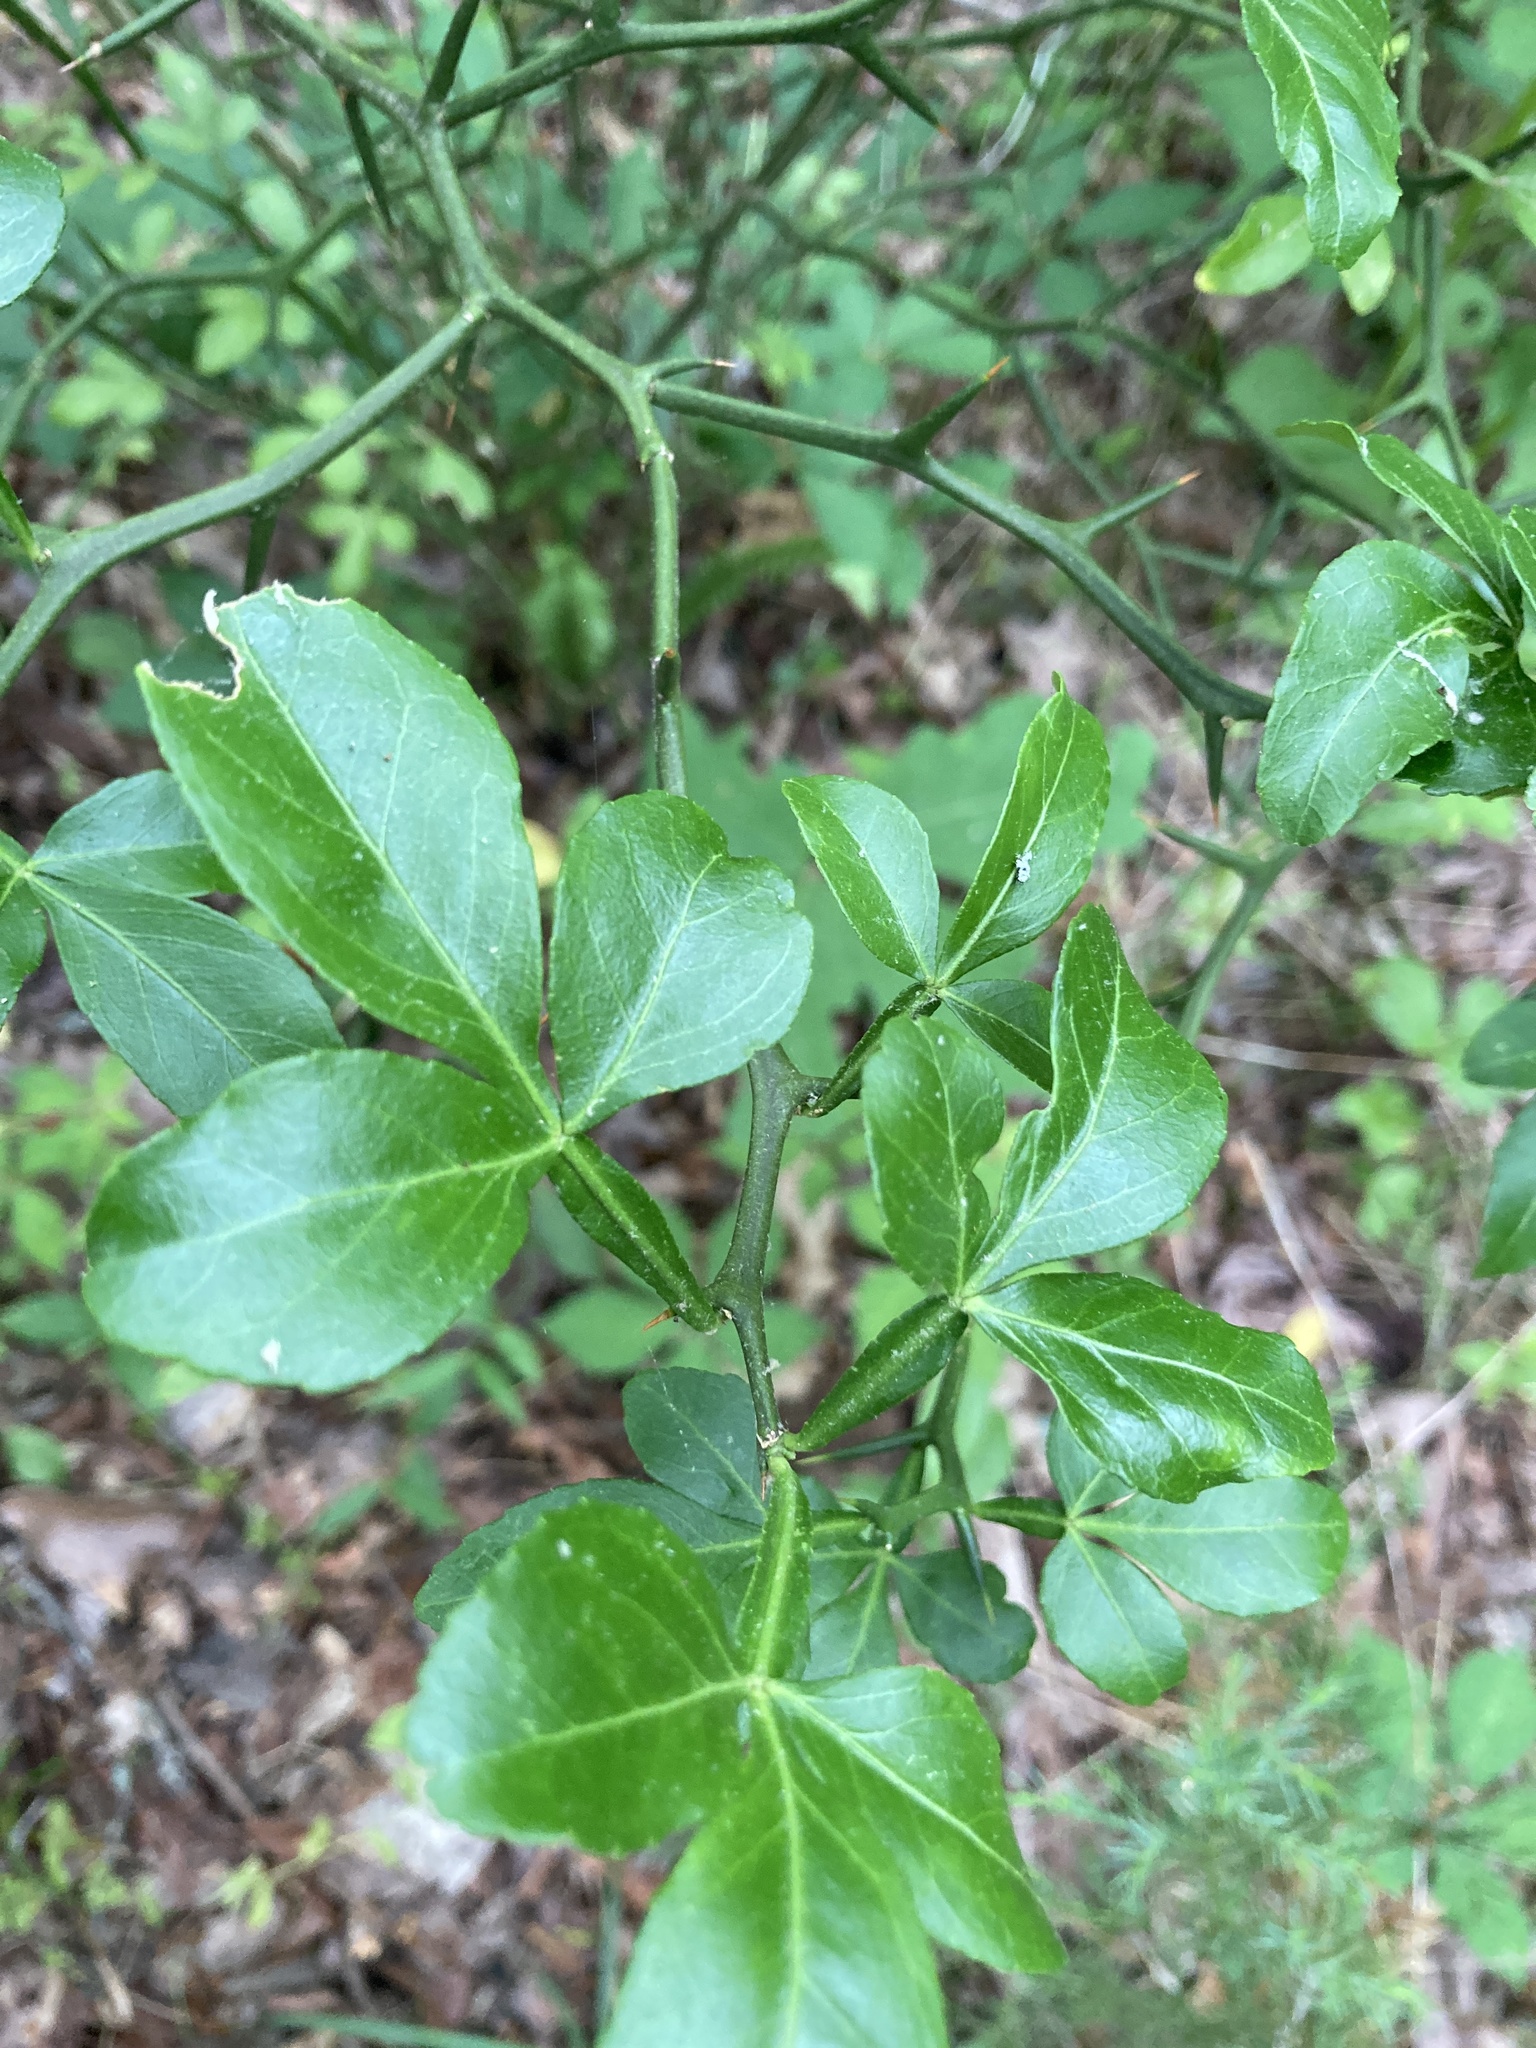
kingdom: Plantae
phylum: Tracheophyta
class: Magnoliopsida
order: Sapindales
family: Rutaceae
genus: Citrus
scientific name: Citrus trifoliata
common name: Japanese bitter-orange
